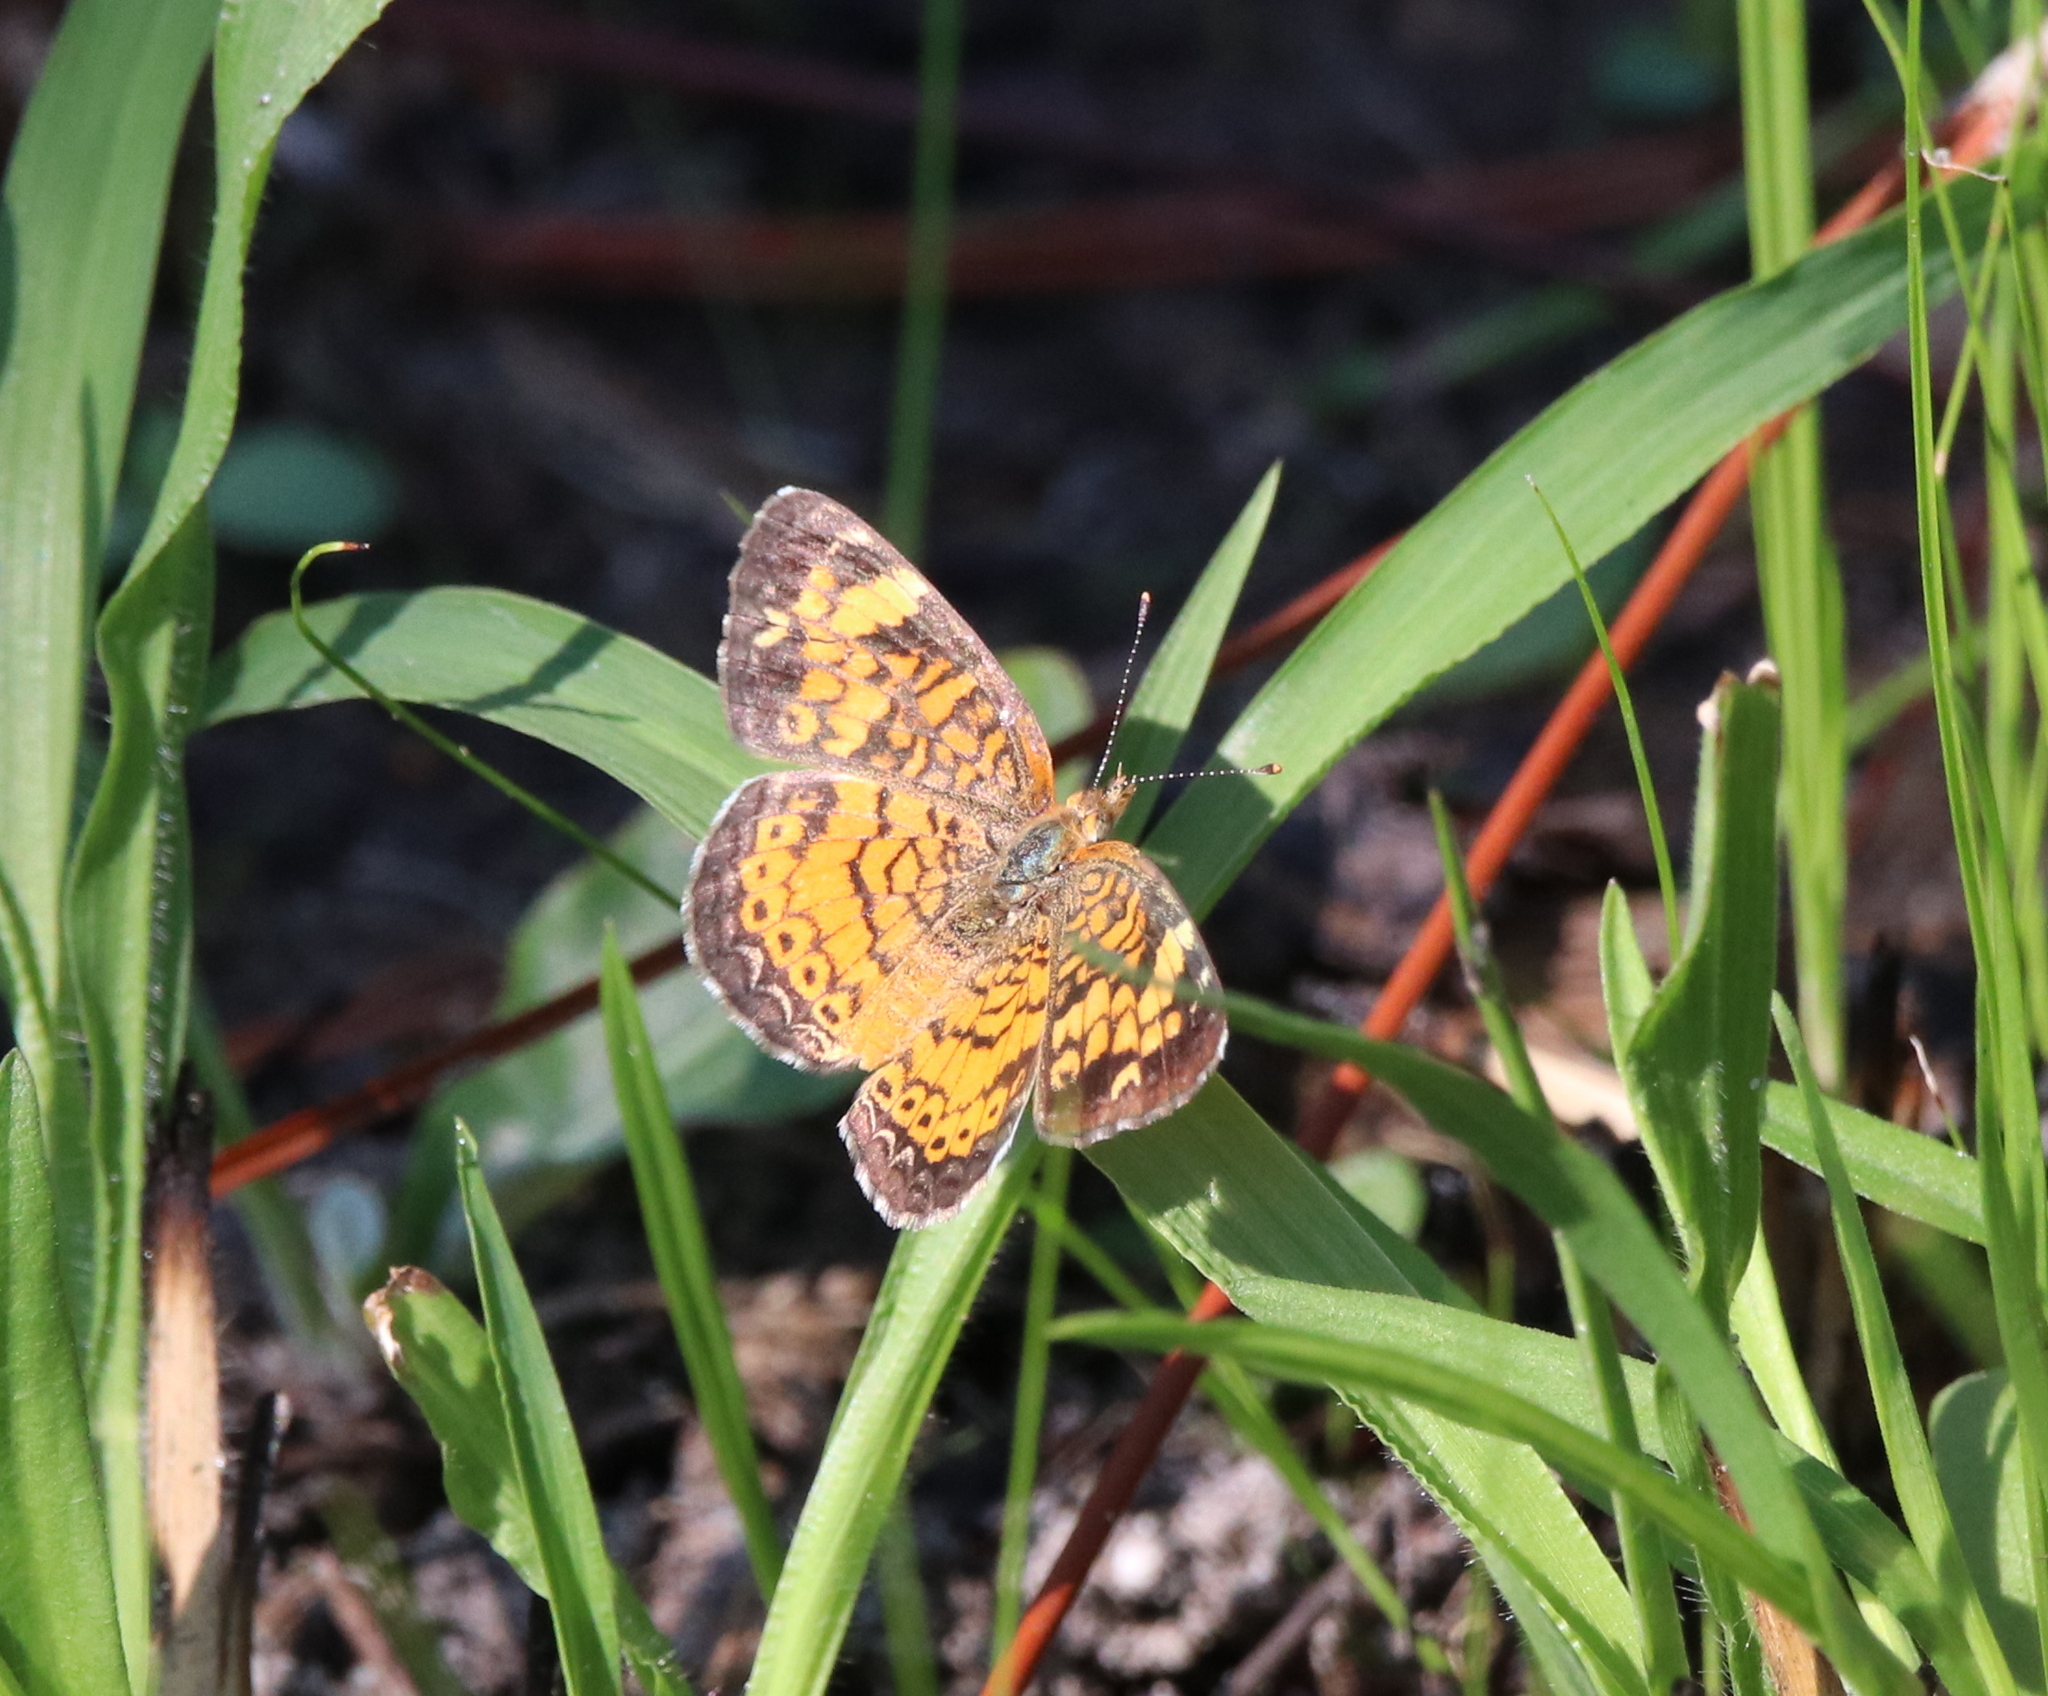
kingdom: Animalia
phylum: Arthropoda
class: Insecta
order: Lepidoptera
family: Nymphalidae
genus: Phyciodes
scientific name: Phyciodes tharos
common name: Pearl crescent
